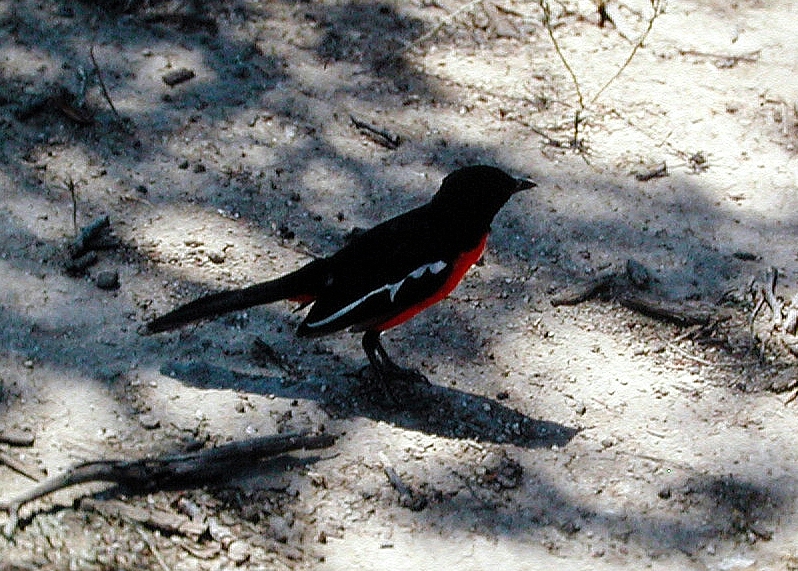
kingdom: Animalia
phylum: Chordata
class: Aves
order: Passeriformes
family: Malaconotidae
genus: Laniarius
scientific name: Laniarius atrococcineus
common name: Crimson-breasted shrike
